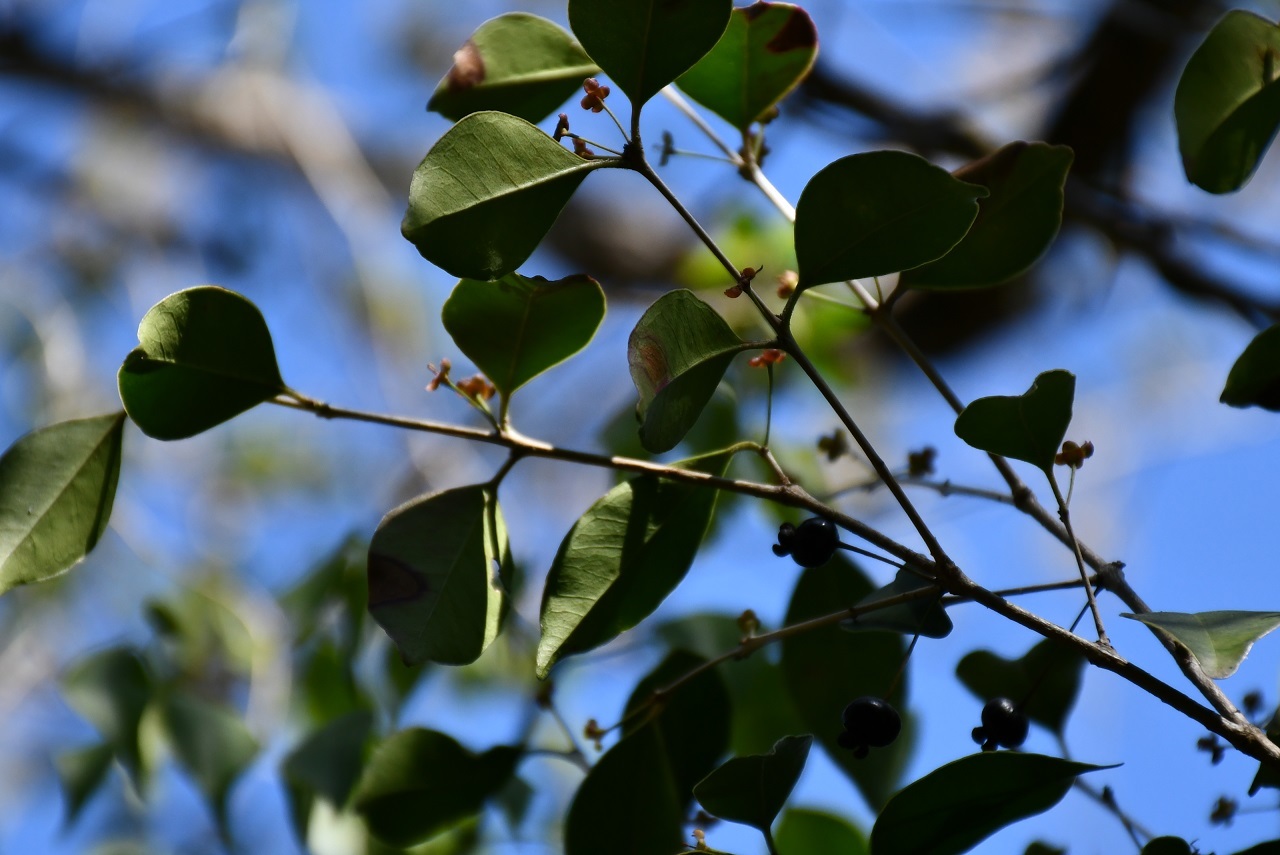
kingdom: Plantae
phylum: Tracheophyta
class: Magnoliopsida
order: Myrtales
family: Myrtaceae
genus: Eugenia
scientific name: Eugenia rhombea
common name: Pigeon berry
